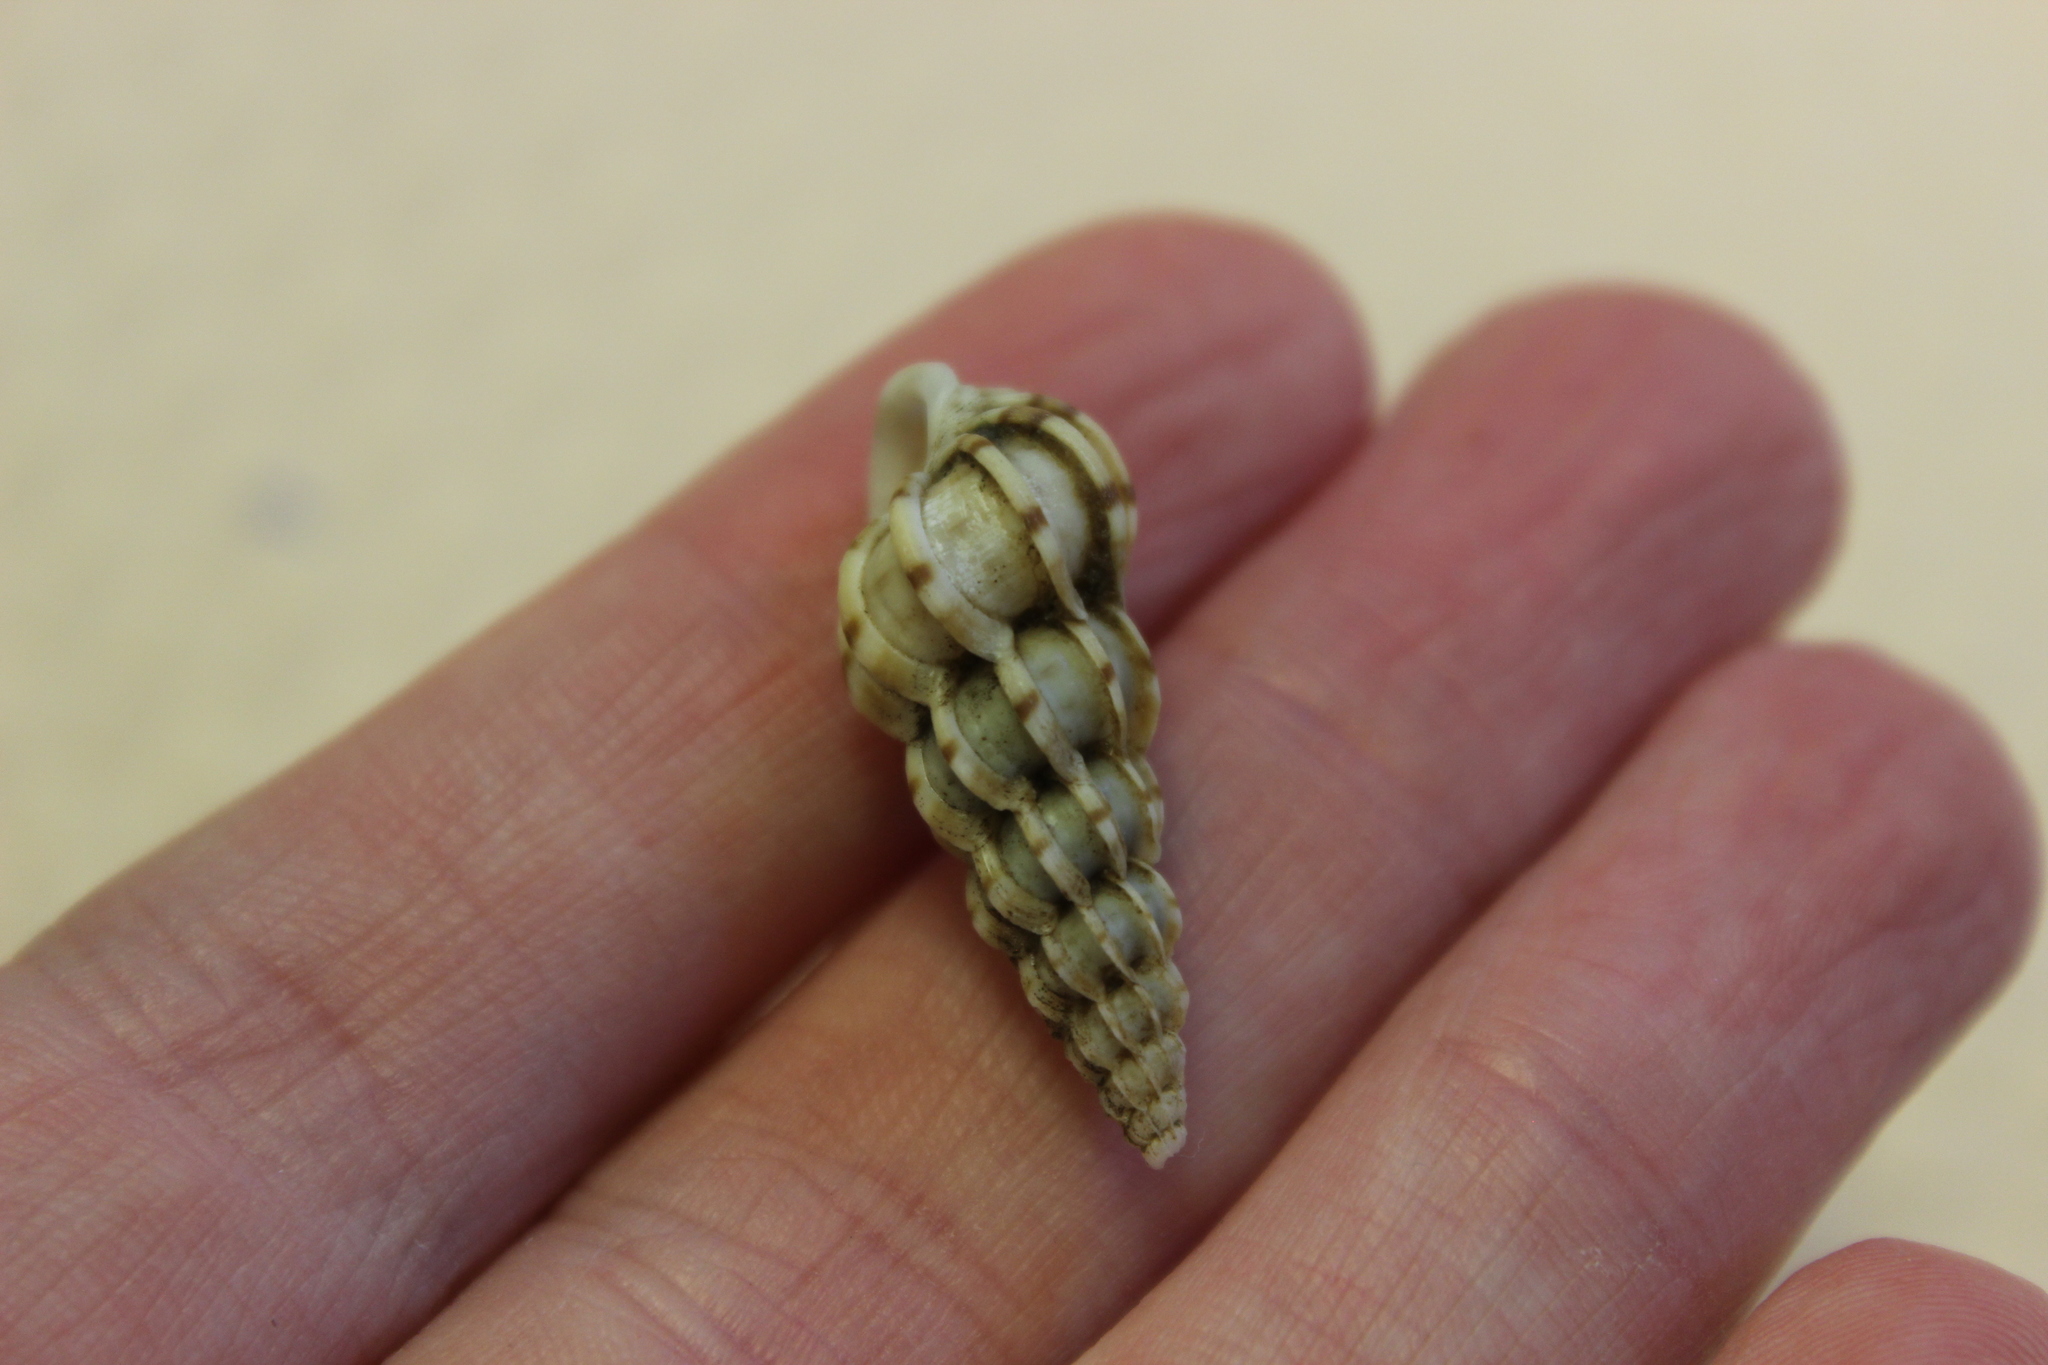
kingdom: Animalia
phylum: Mollusca
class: Gastropoda
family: Epitoniidae
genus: Epitonium
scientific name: Epitonium clathrus
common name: Common wentletrap
